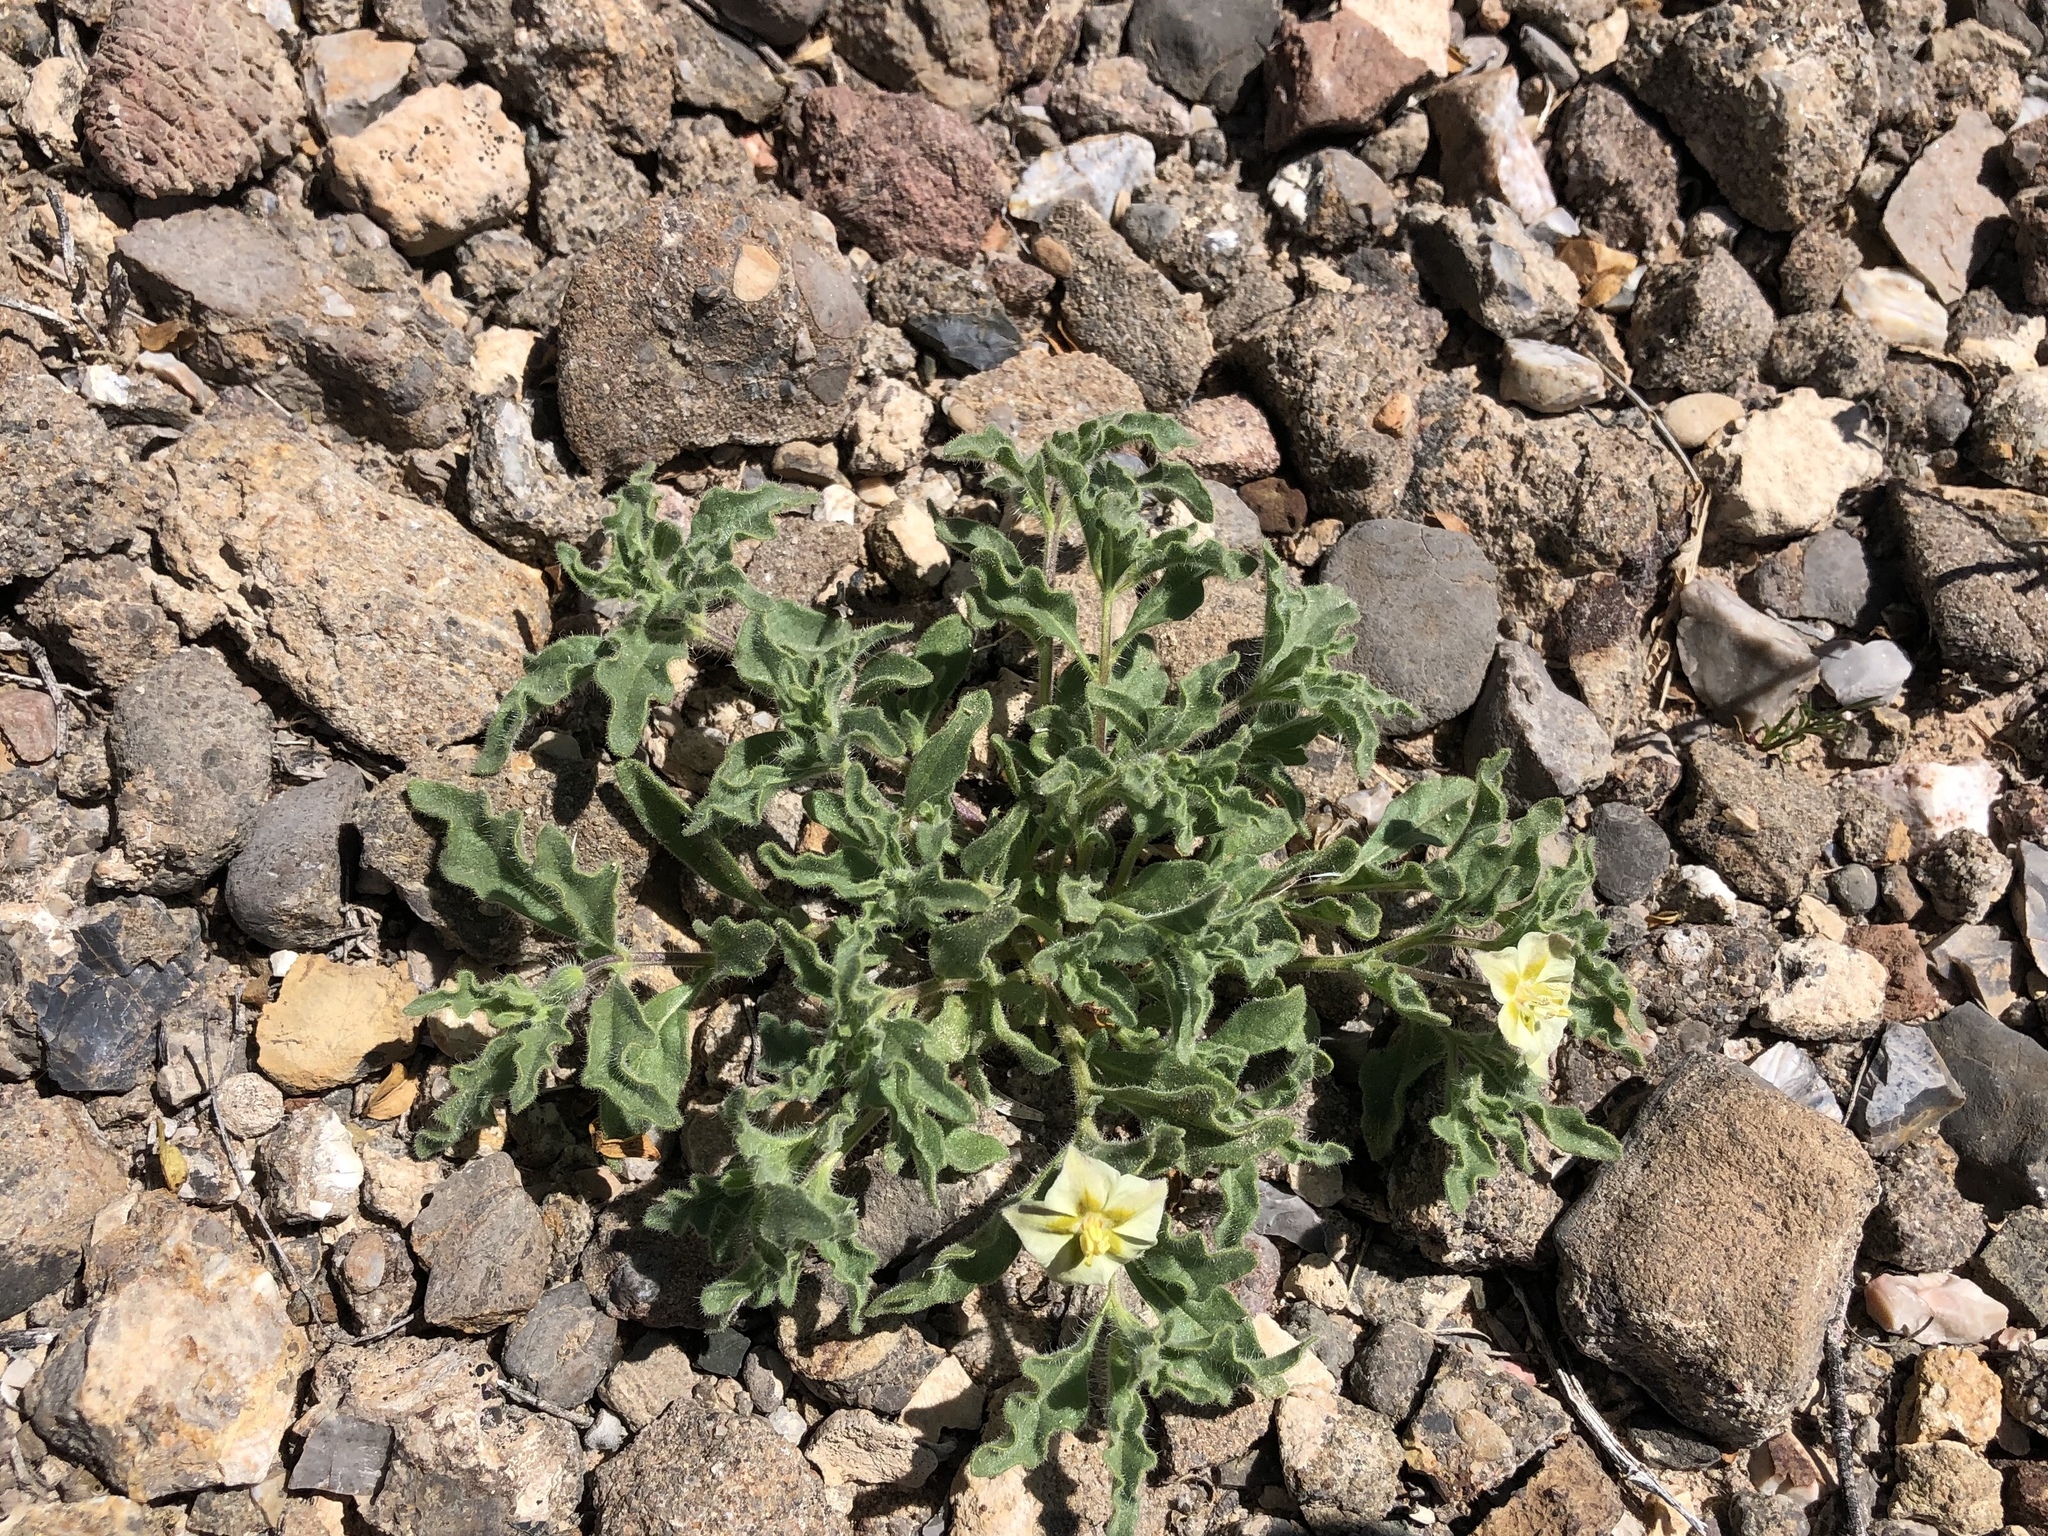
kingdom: Plantae
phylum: Tracheophyta
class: Magnoliopsida
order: Solanales
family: Solanaceae
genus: Chamaesaracha
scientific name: Chamaesaracha sordida
